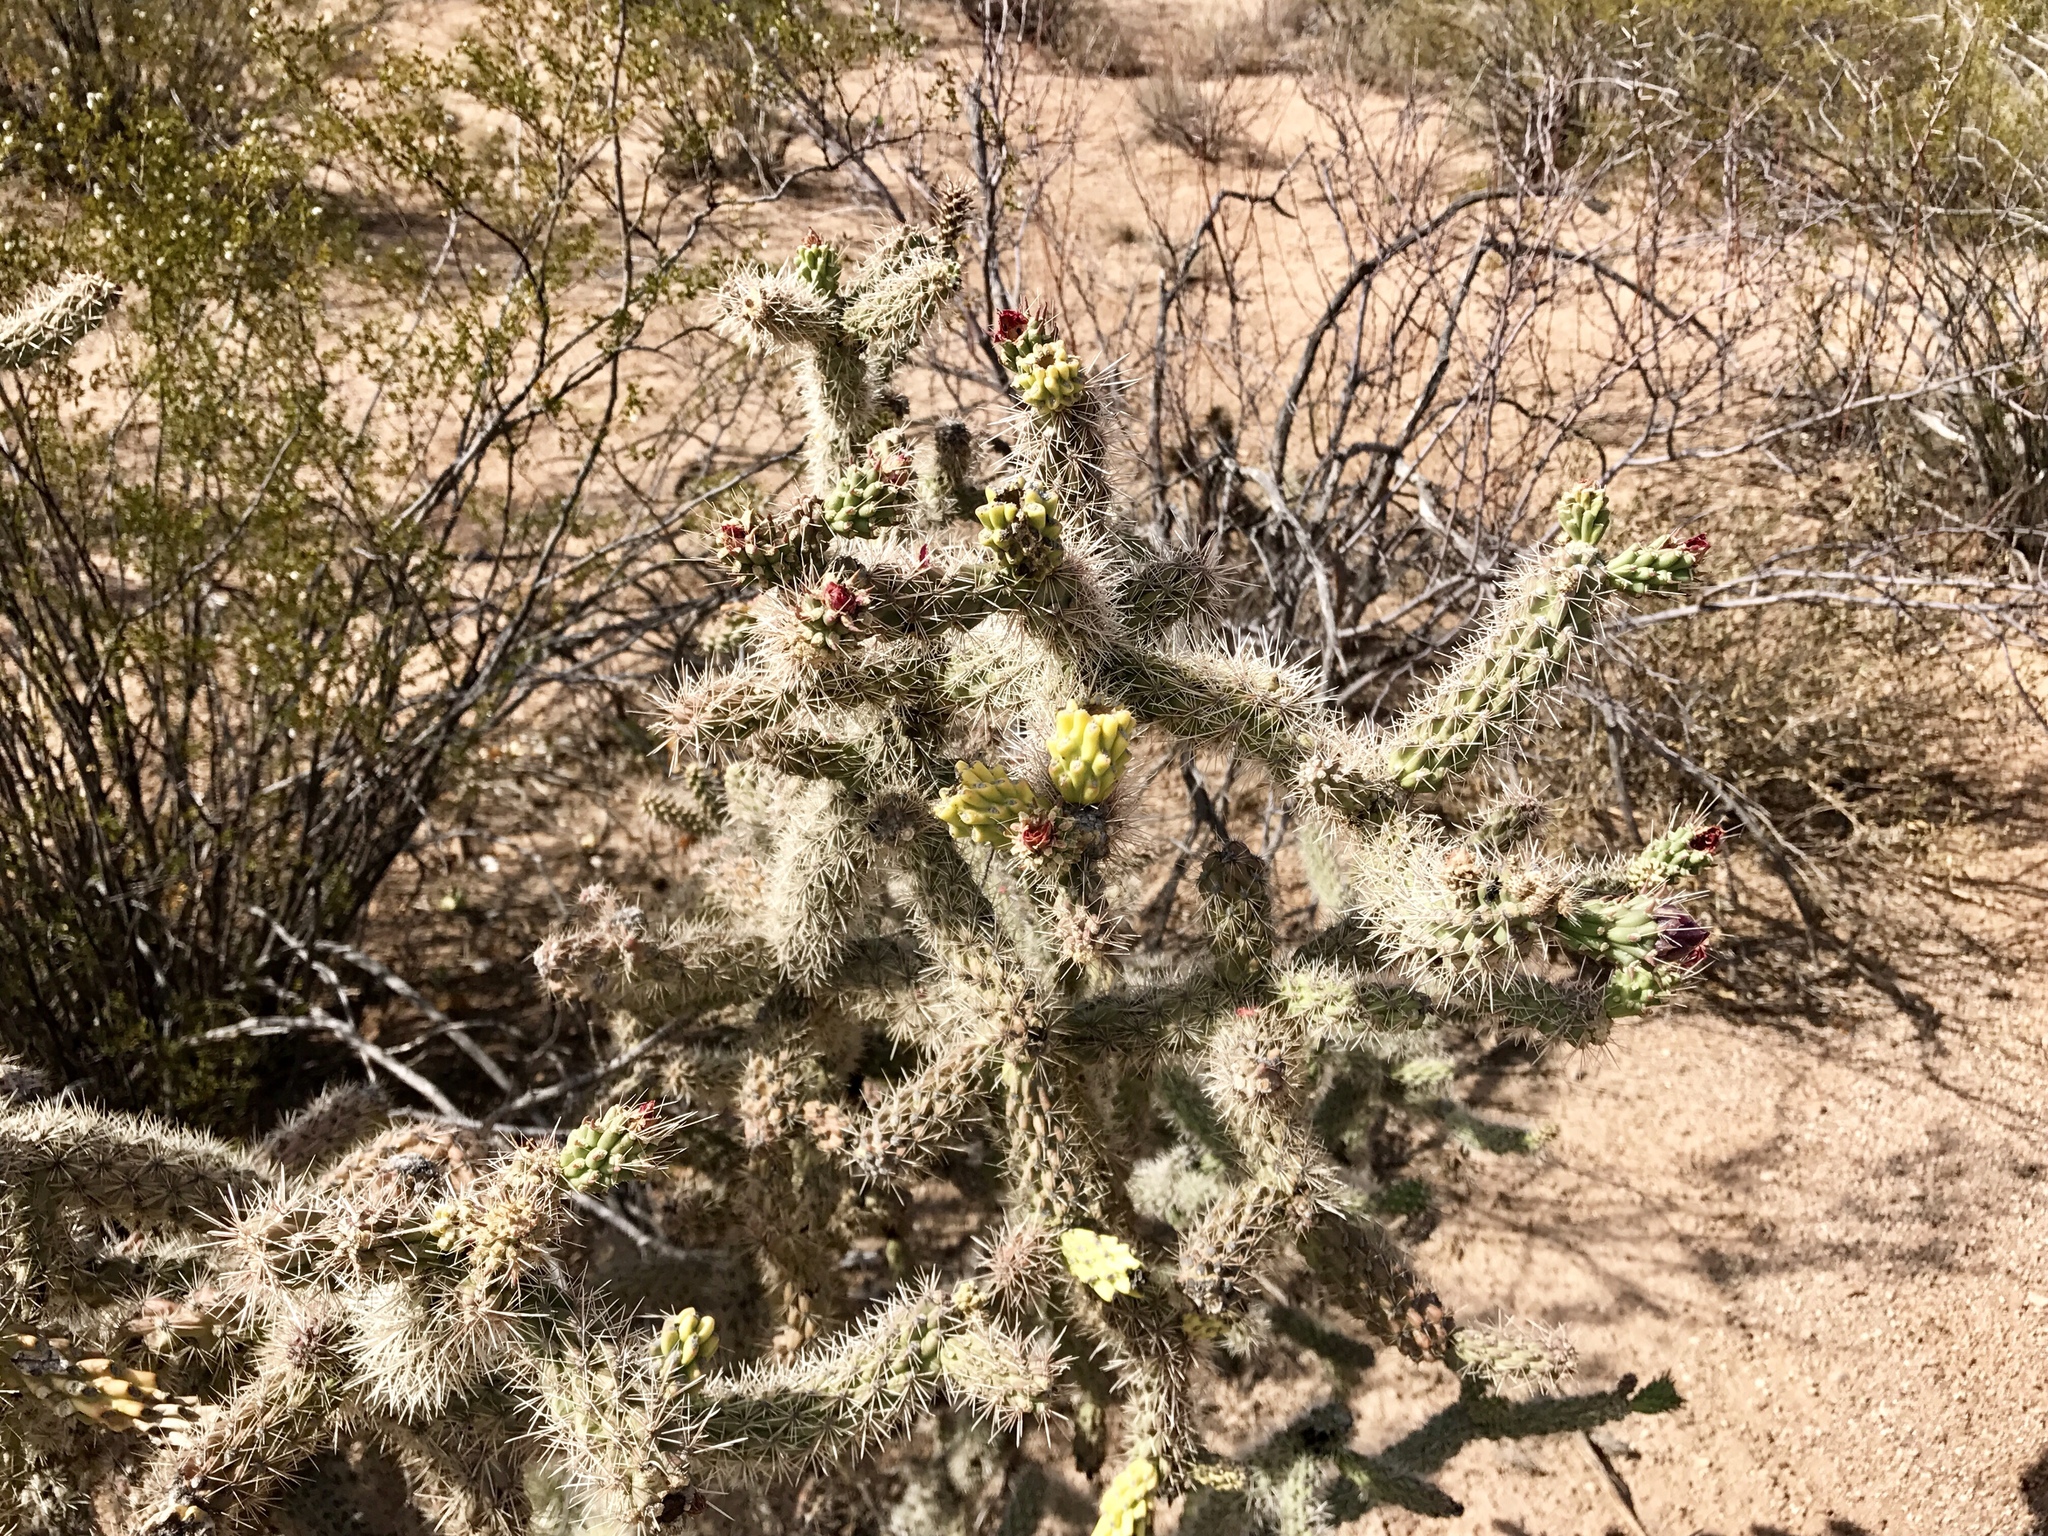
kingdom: Plantae
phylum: Tracheophyta
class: Magnoliopsida
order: Caryophyllales
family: Cactaceae
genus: Cylindropuntia
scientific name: Cylindropuntia imbricata
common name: Candelabrum cactus
